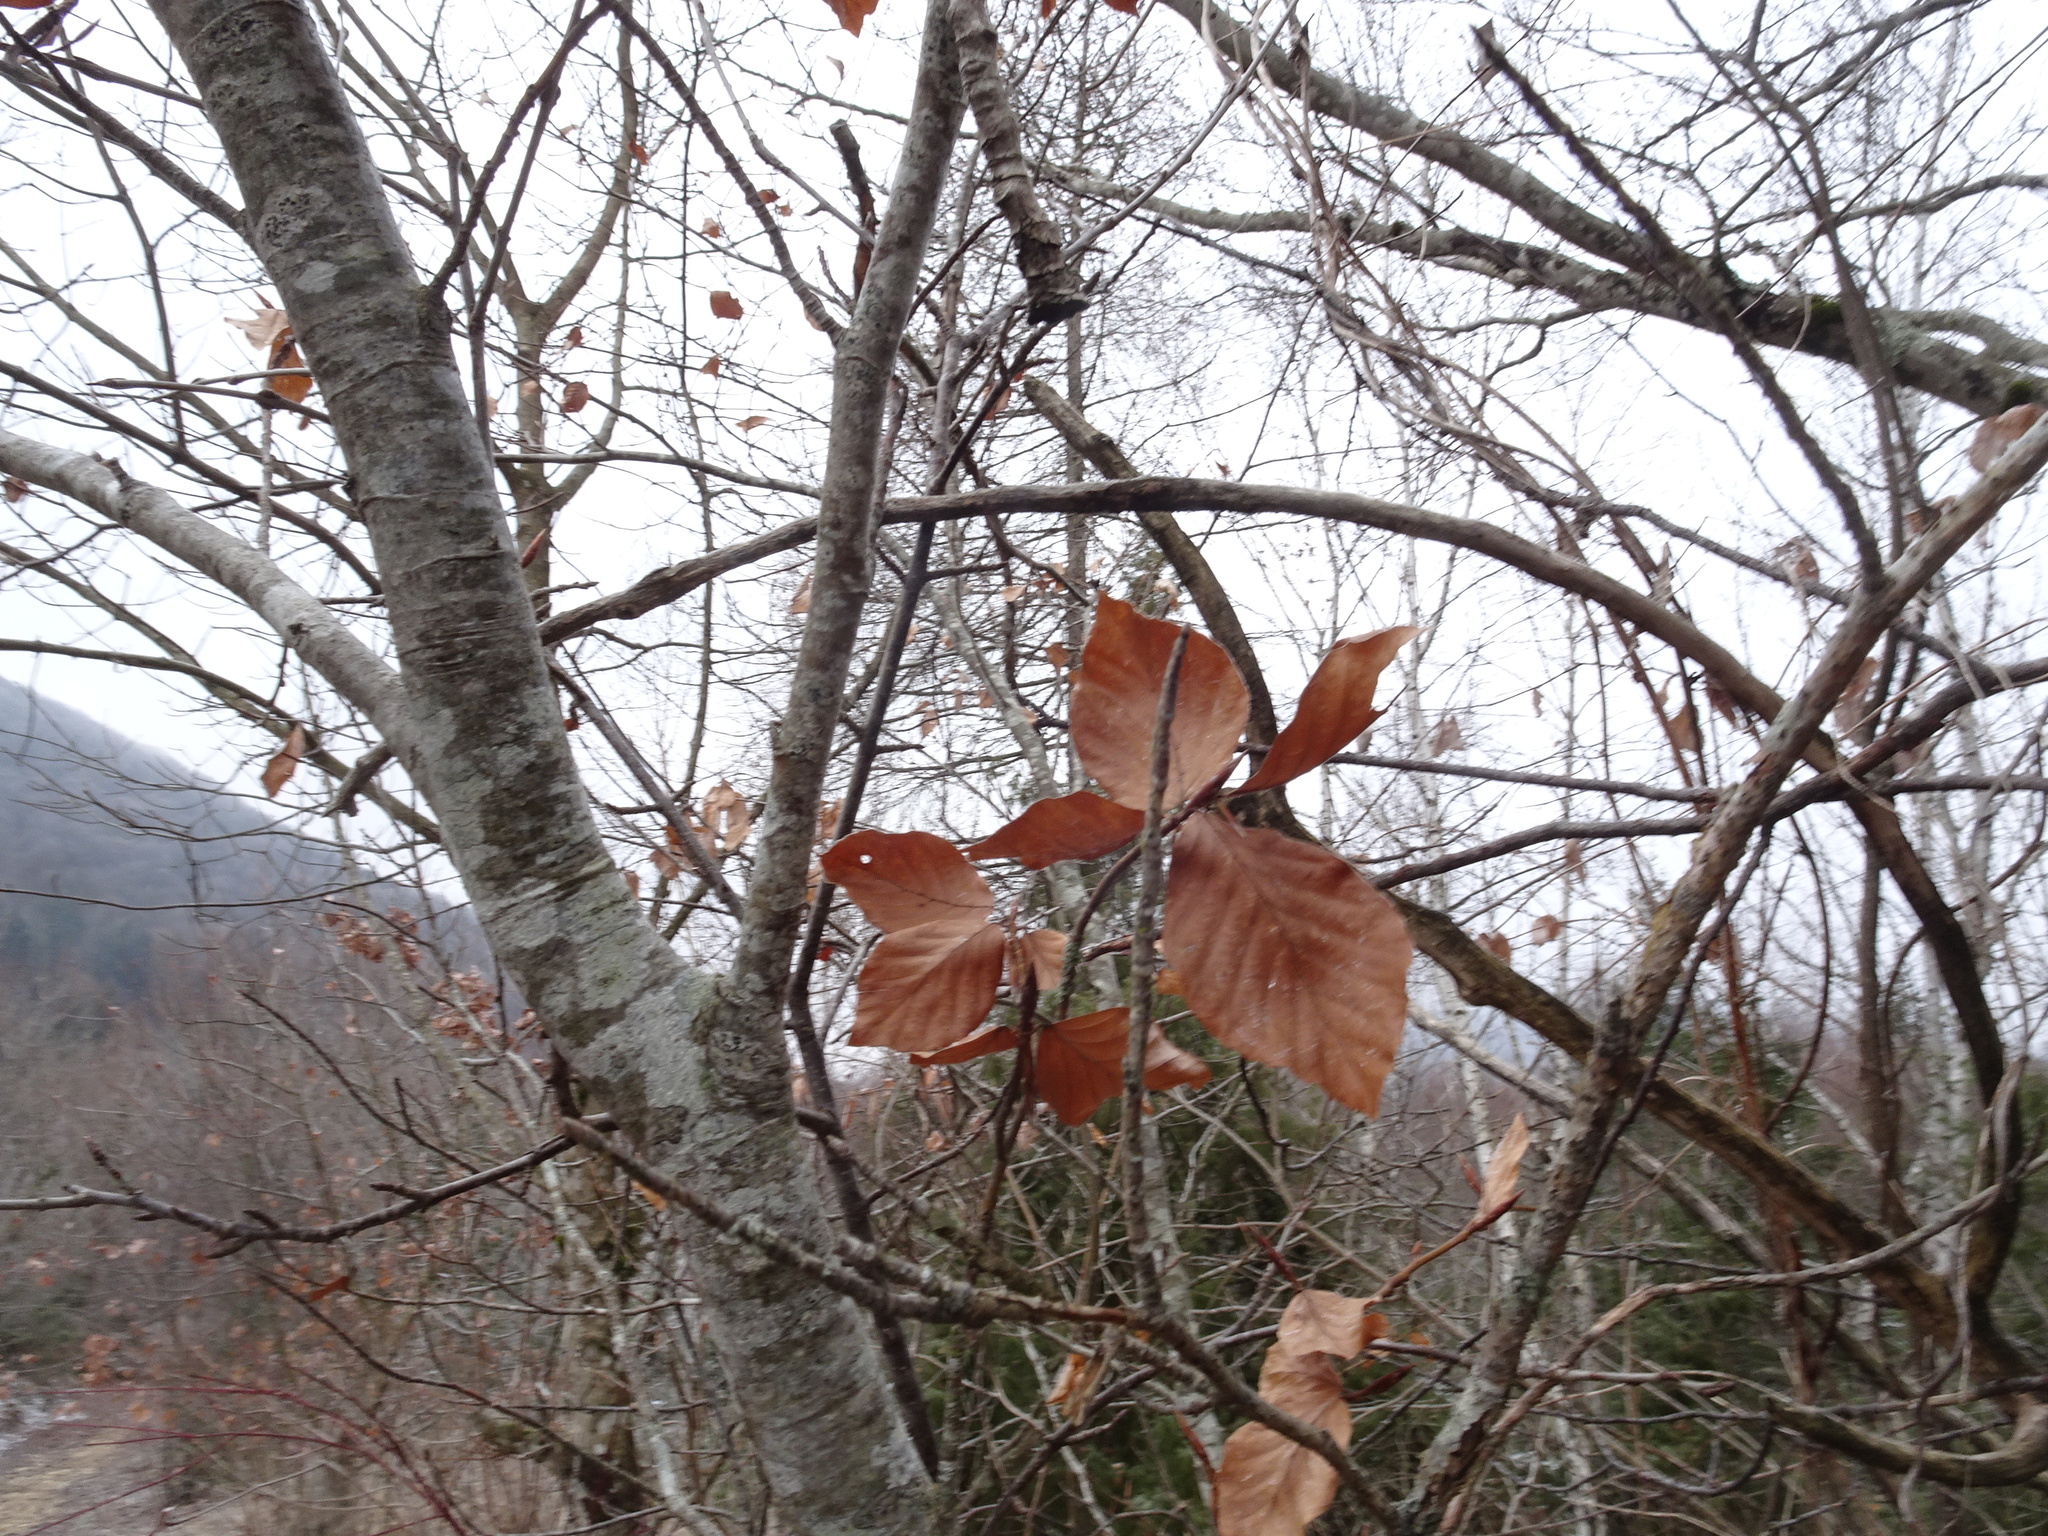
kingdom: Plantae
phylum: Tracheophyta
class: Magnoliopsida
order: Fagales
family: Fagaceae
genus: Fagus
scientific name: Fagus sylvatica
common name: Beech
